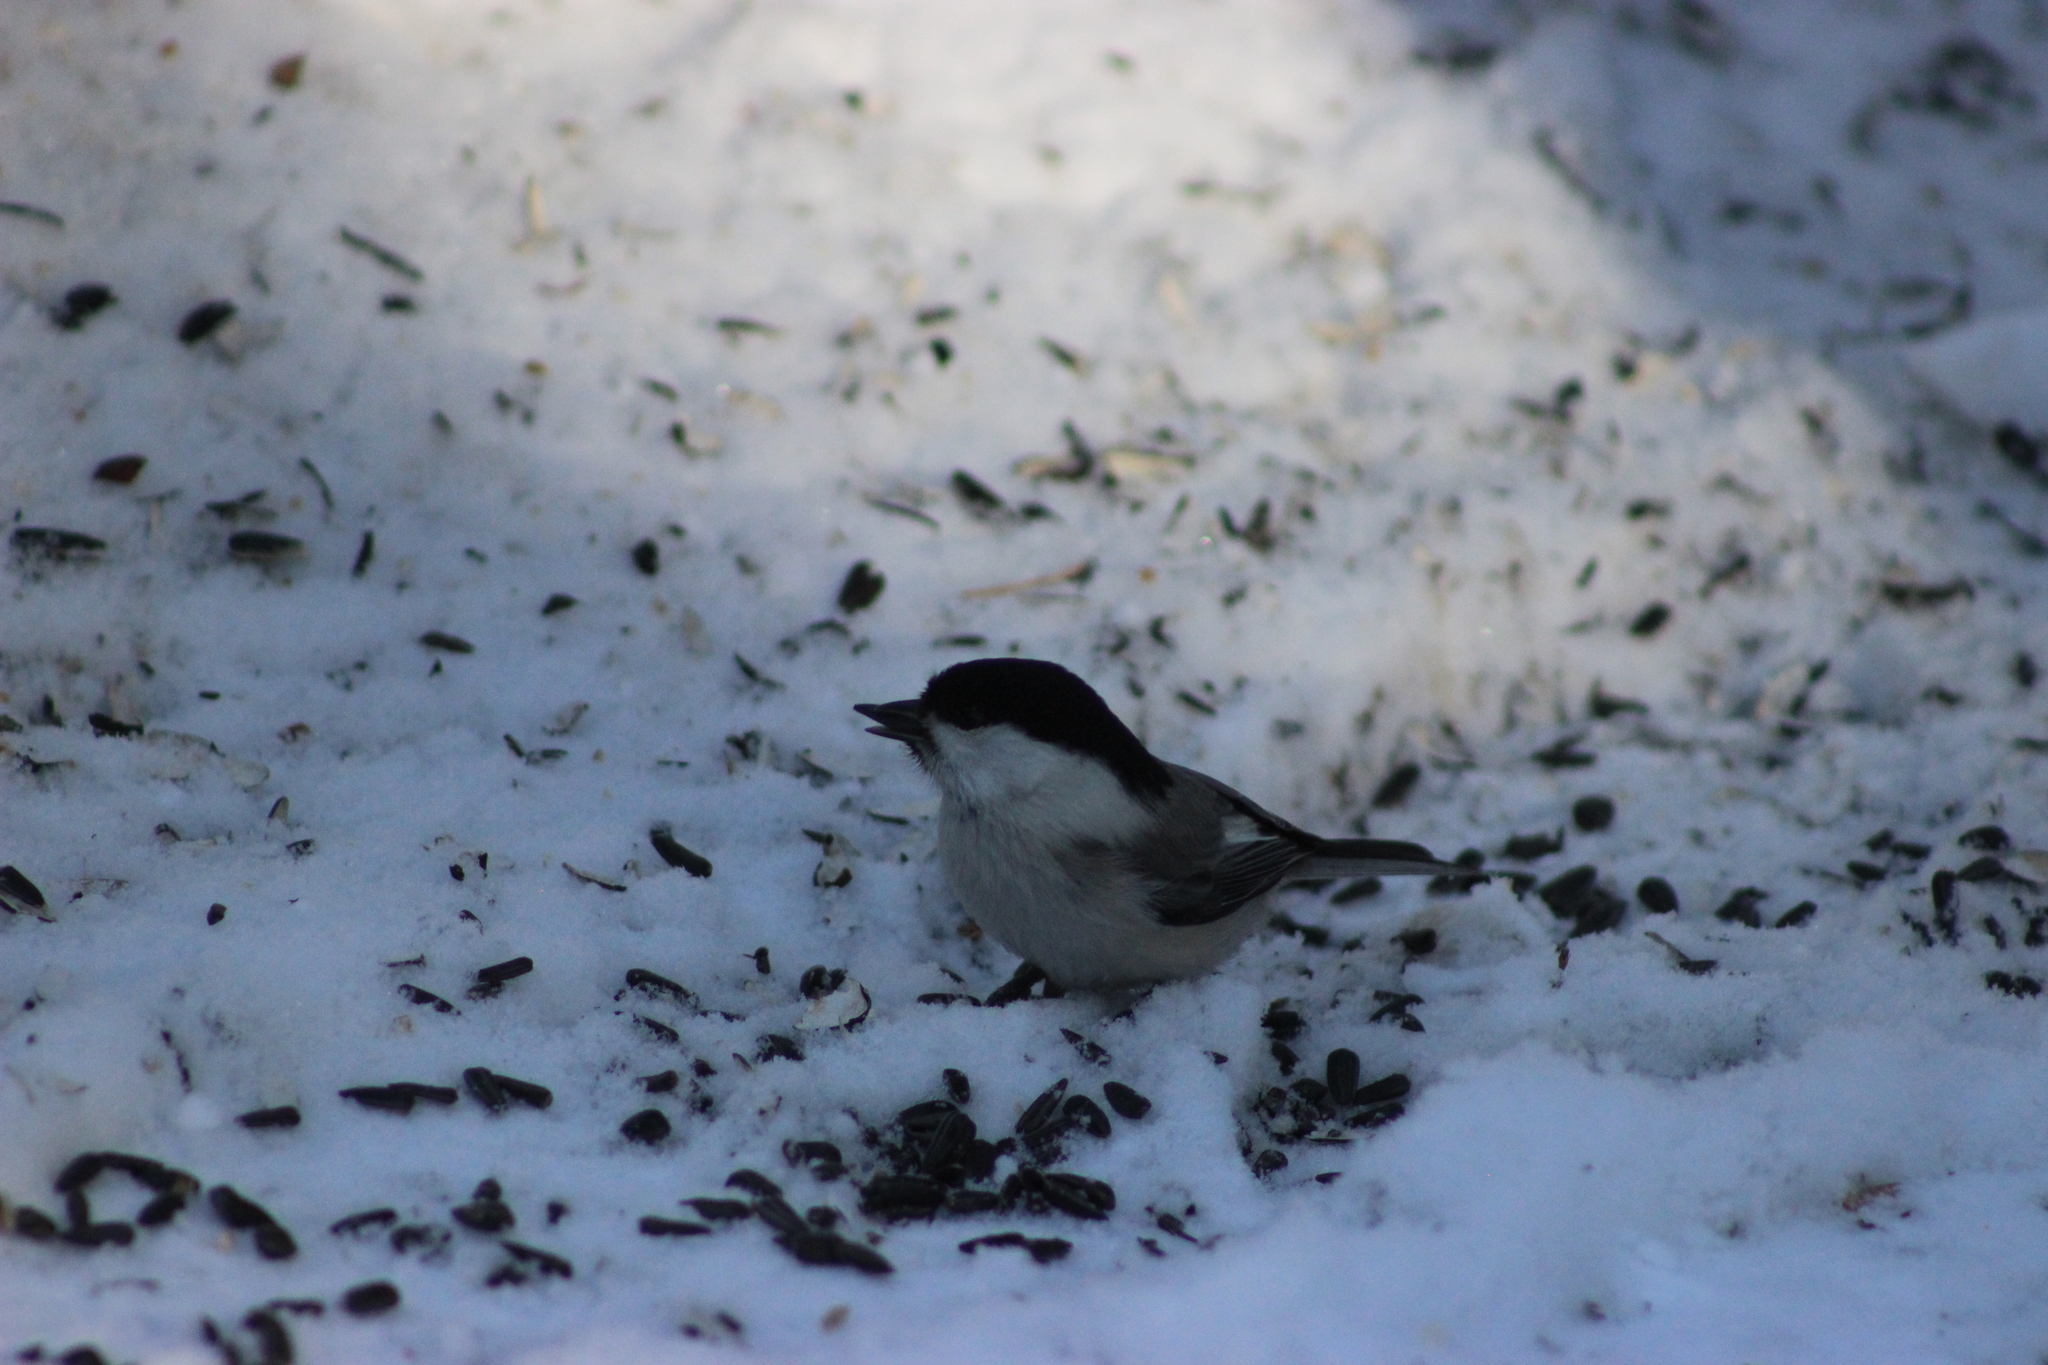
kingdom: Animalia
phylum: Chordata
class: Aves
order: Passeriformes
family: Paridae
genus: Poecile
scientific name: Poecile montanus
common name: Willow tit
